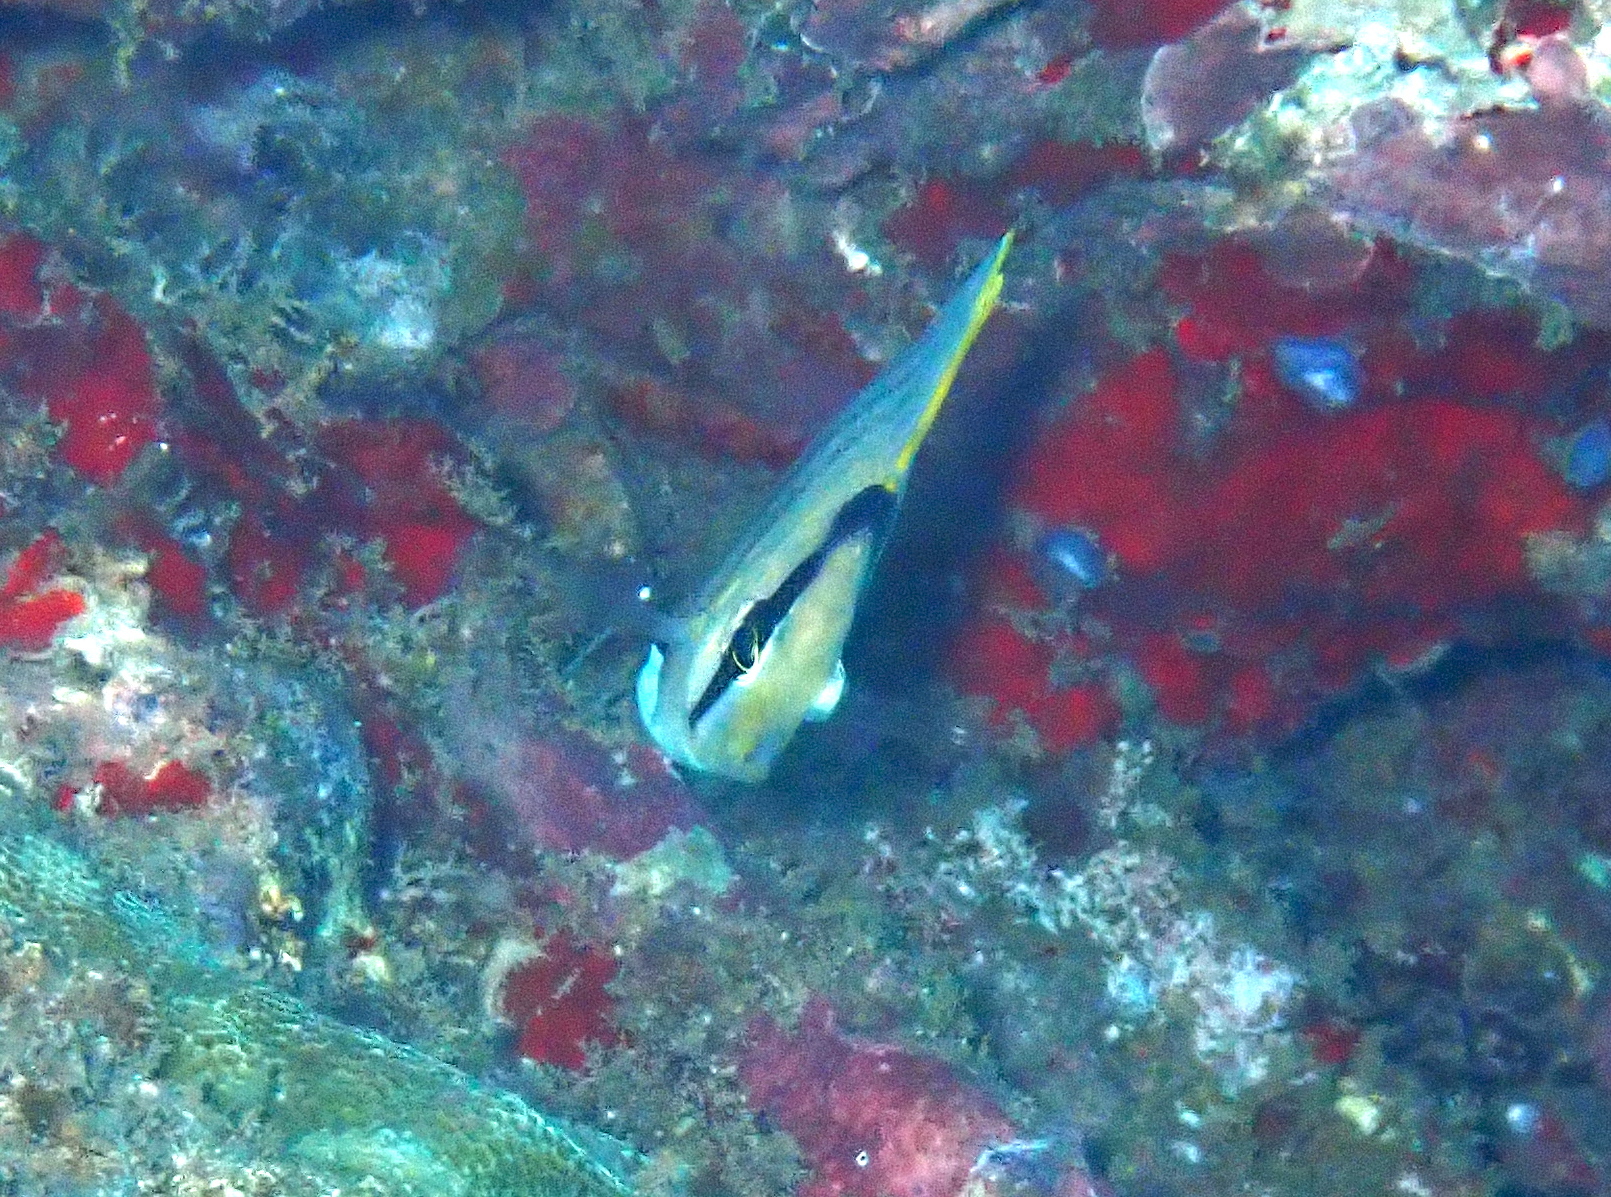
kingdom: Animalia
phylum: Chordata
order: Perciformes
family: Chaetodontidae
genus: Chaetodon
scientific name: Chaetodon multicinctus
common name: Multiband butterflyfish
